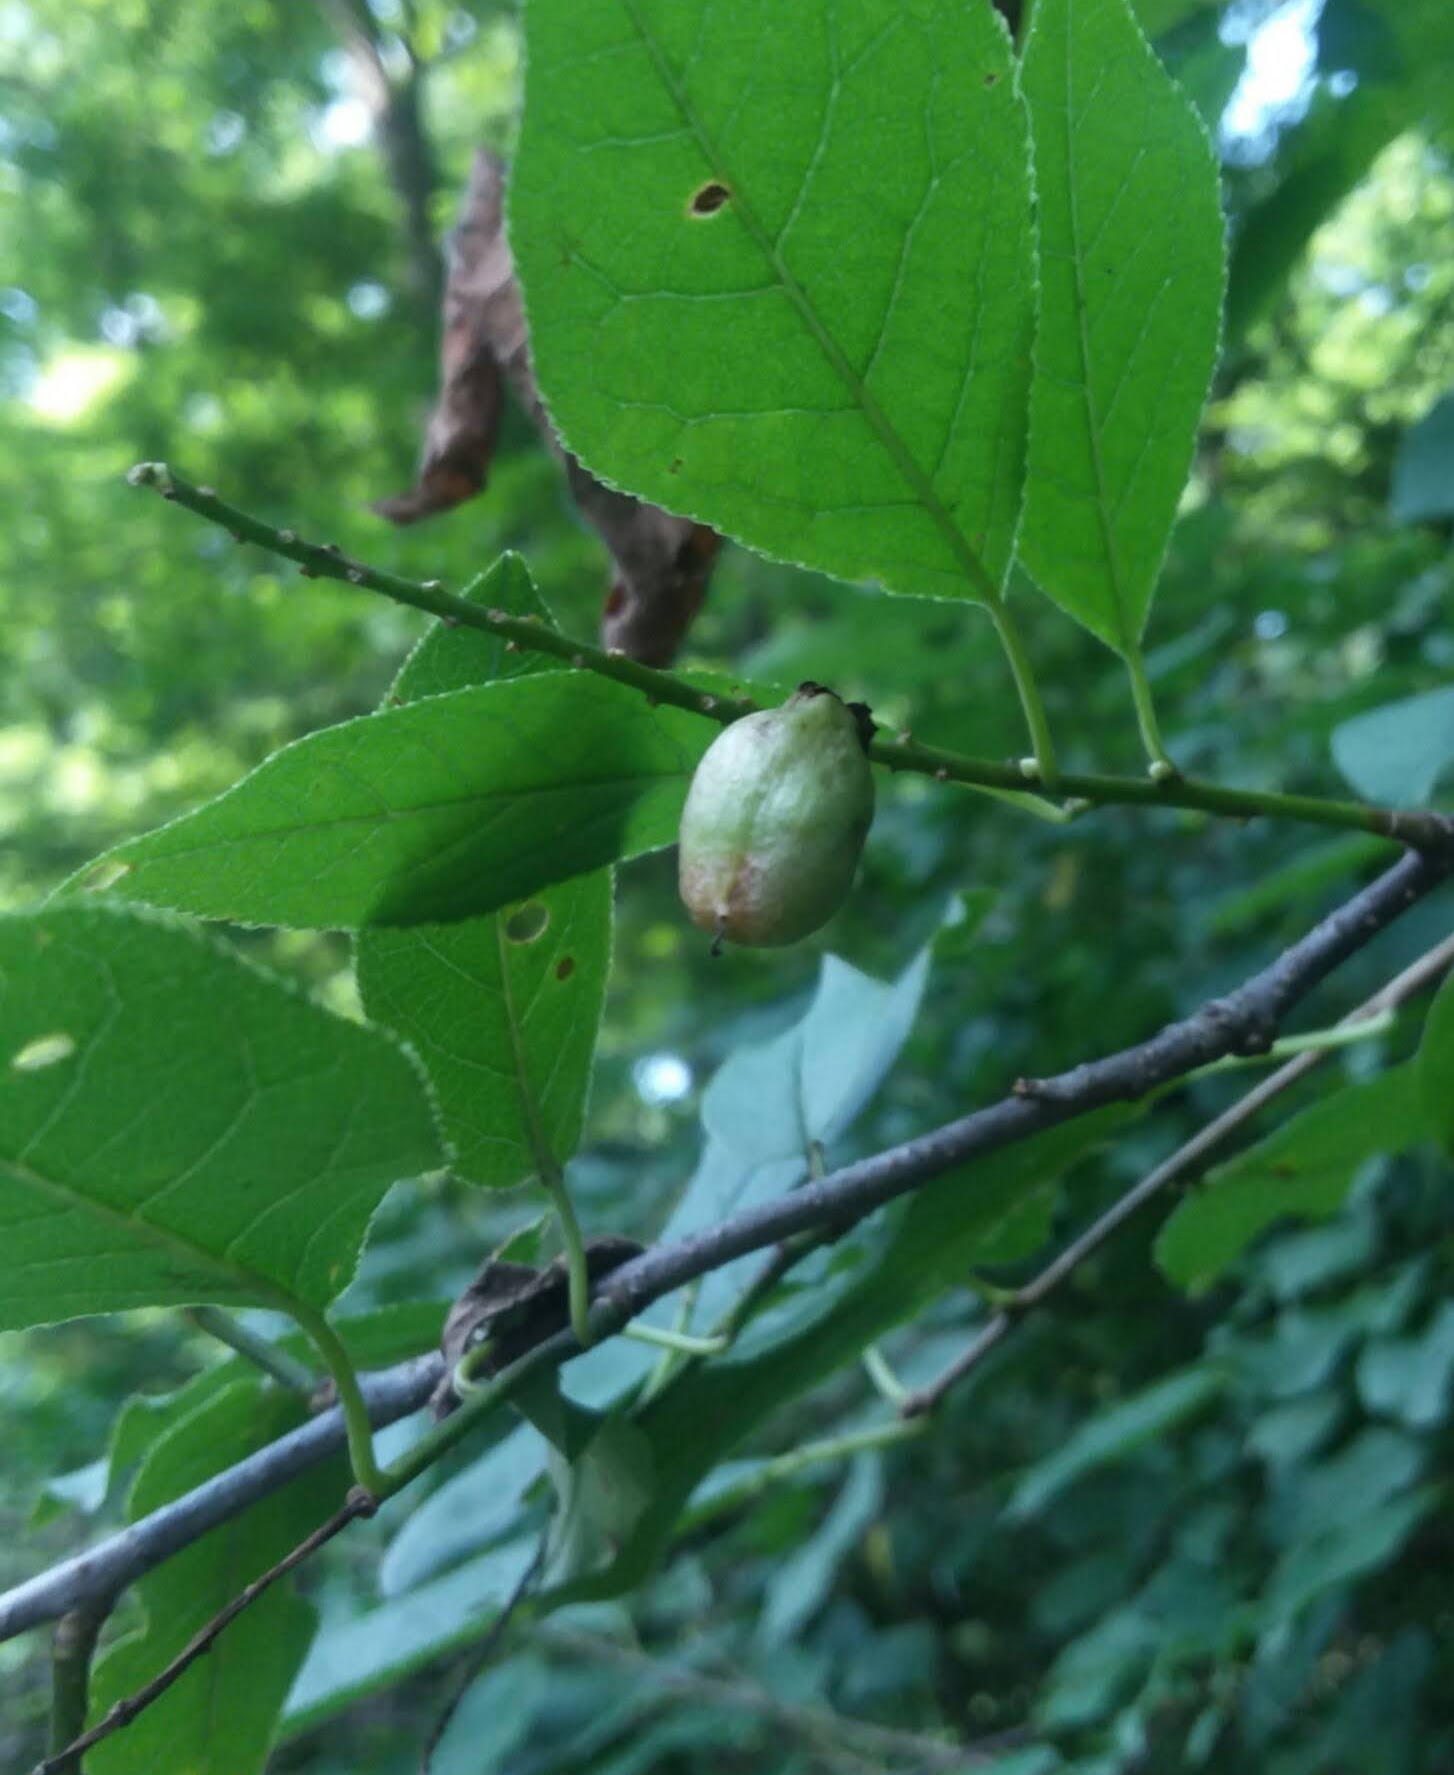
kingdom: Animalia
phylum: Arthropoda
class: Insecta
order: Diptera
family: Cecidomyiidae
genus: Contarinia
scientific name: Contarinia virginianiae
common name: Chokecherry midge
